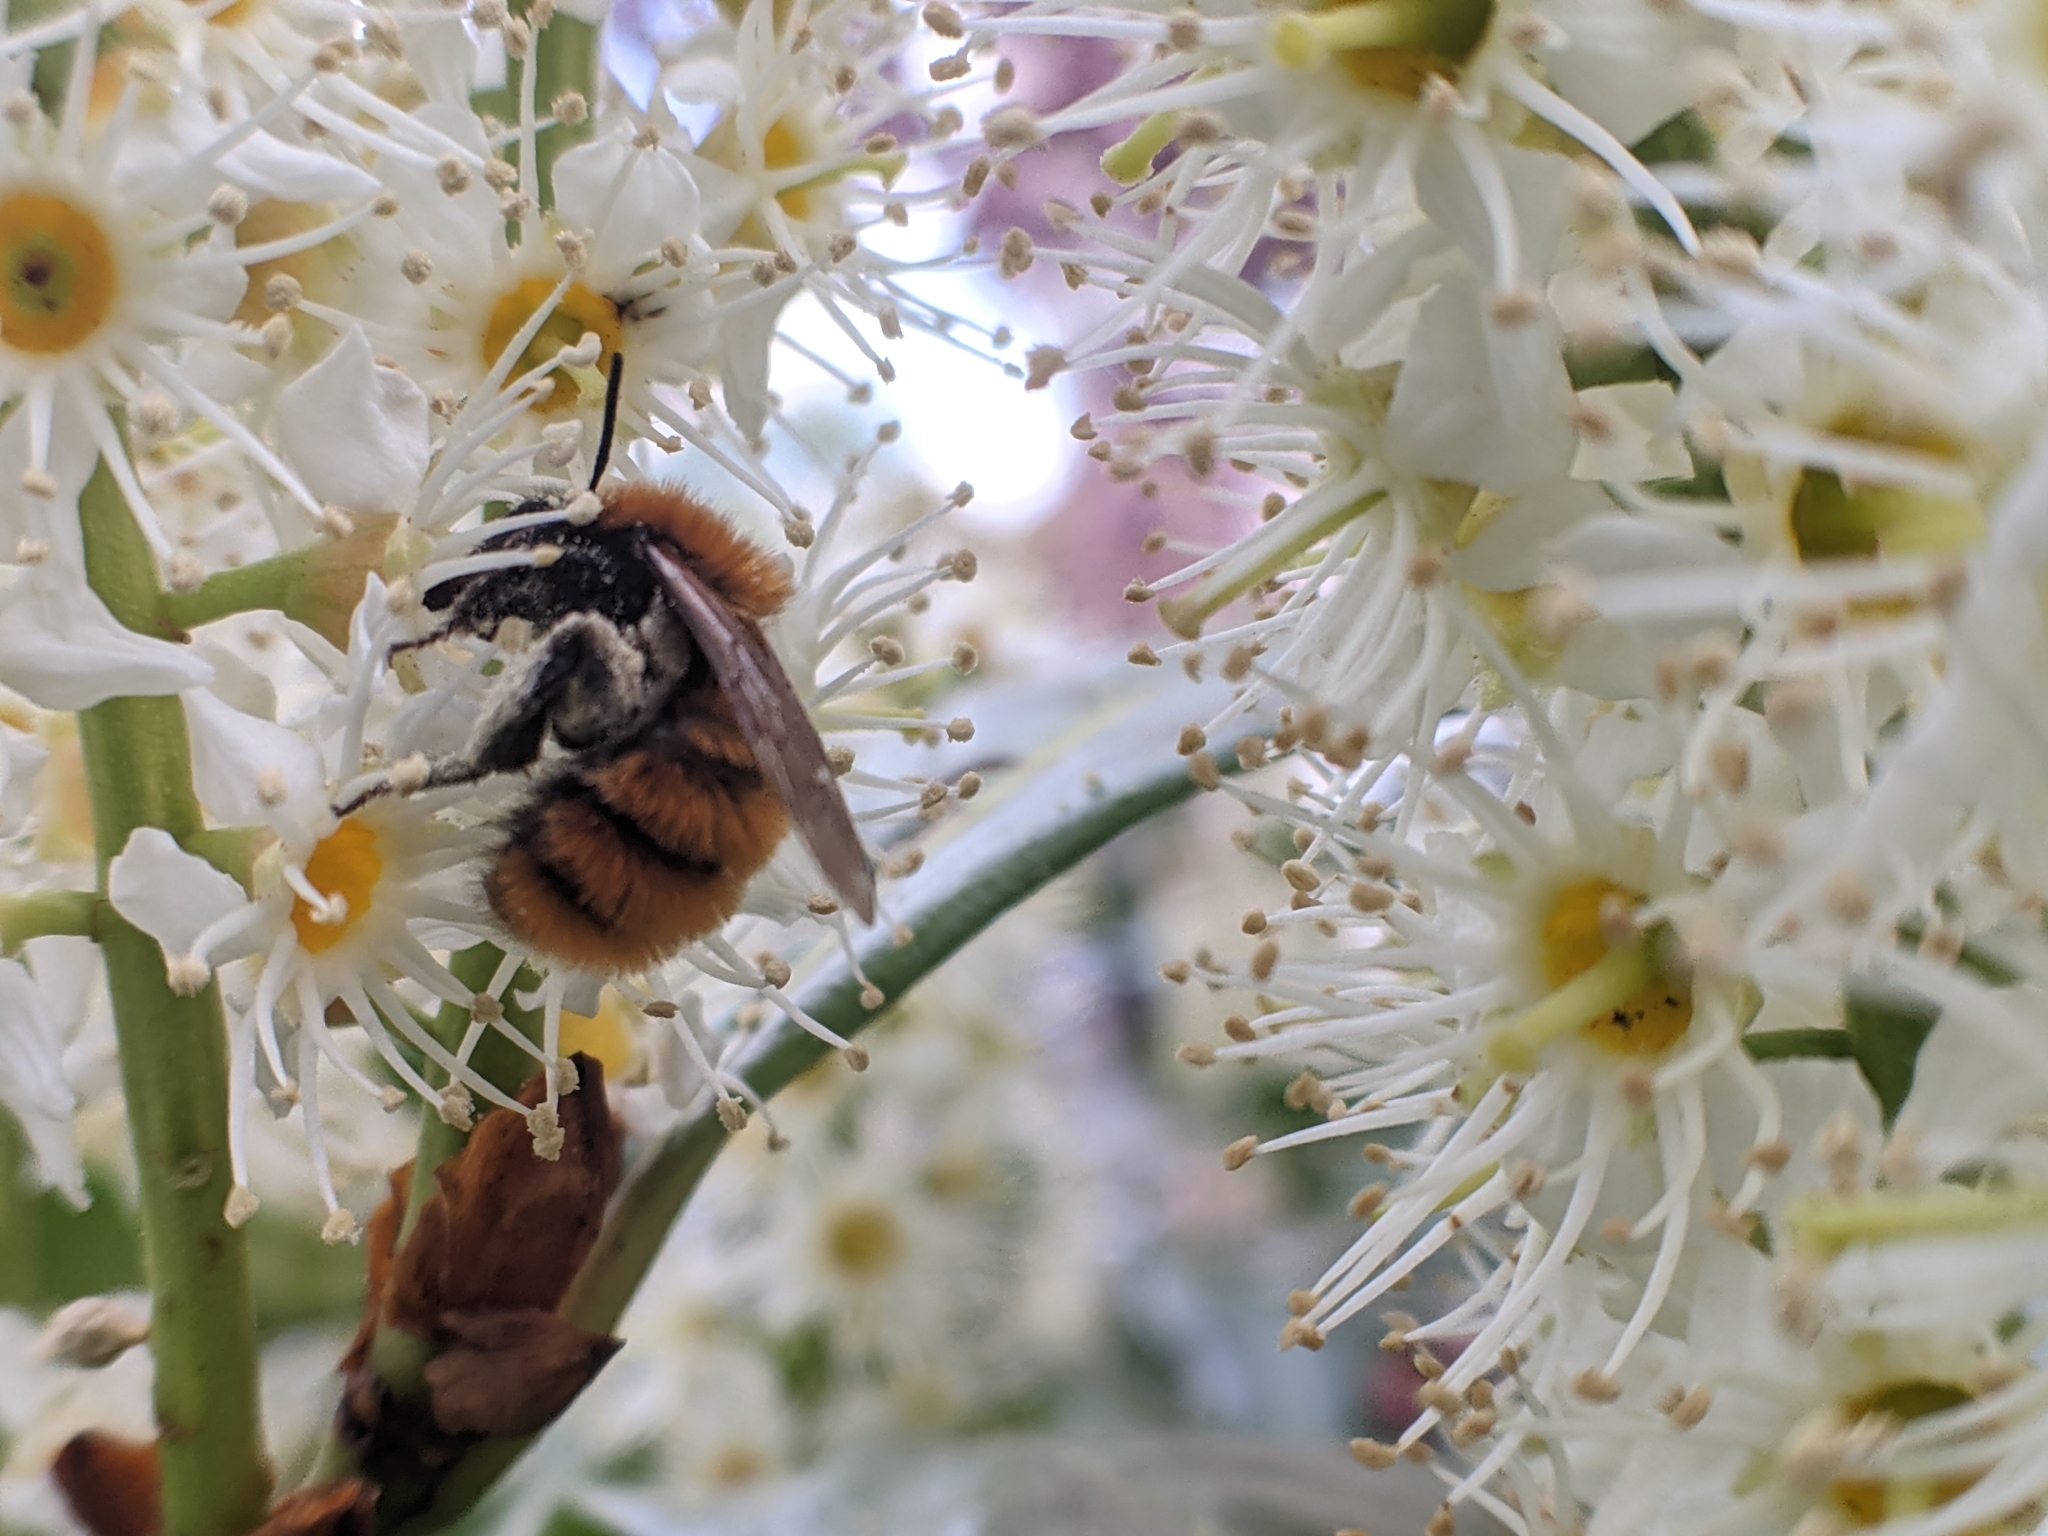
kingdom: Animalia
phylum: Arthropoda
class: Insecta
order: Hymenoptera
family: Andrenidae
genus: Andrena
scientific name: Andrena fulva
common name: Tawny mining bee
